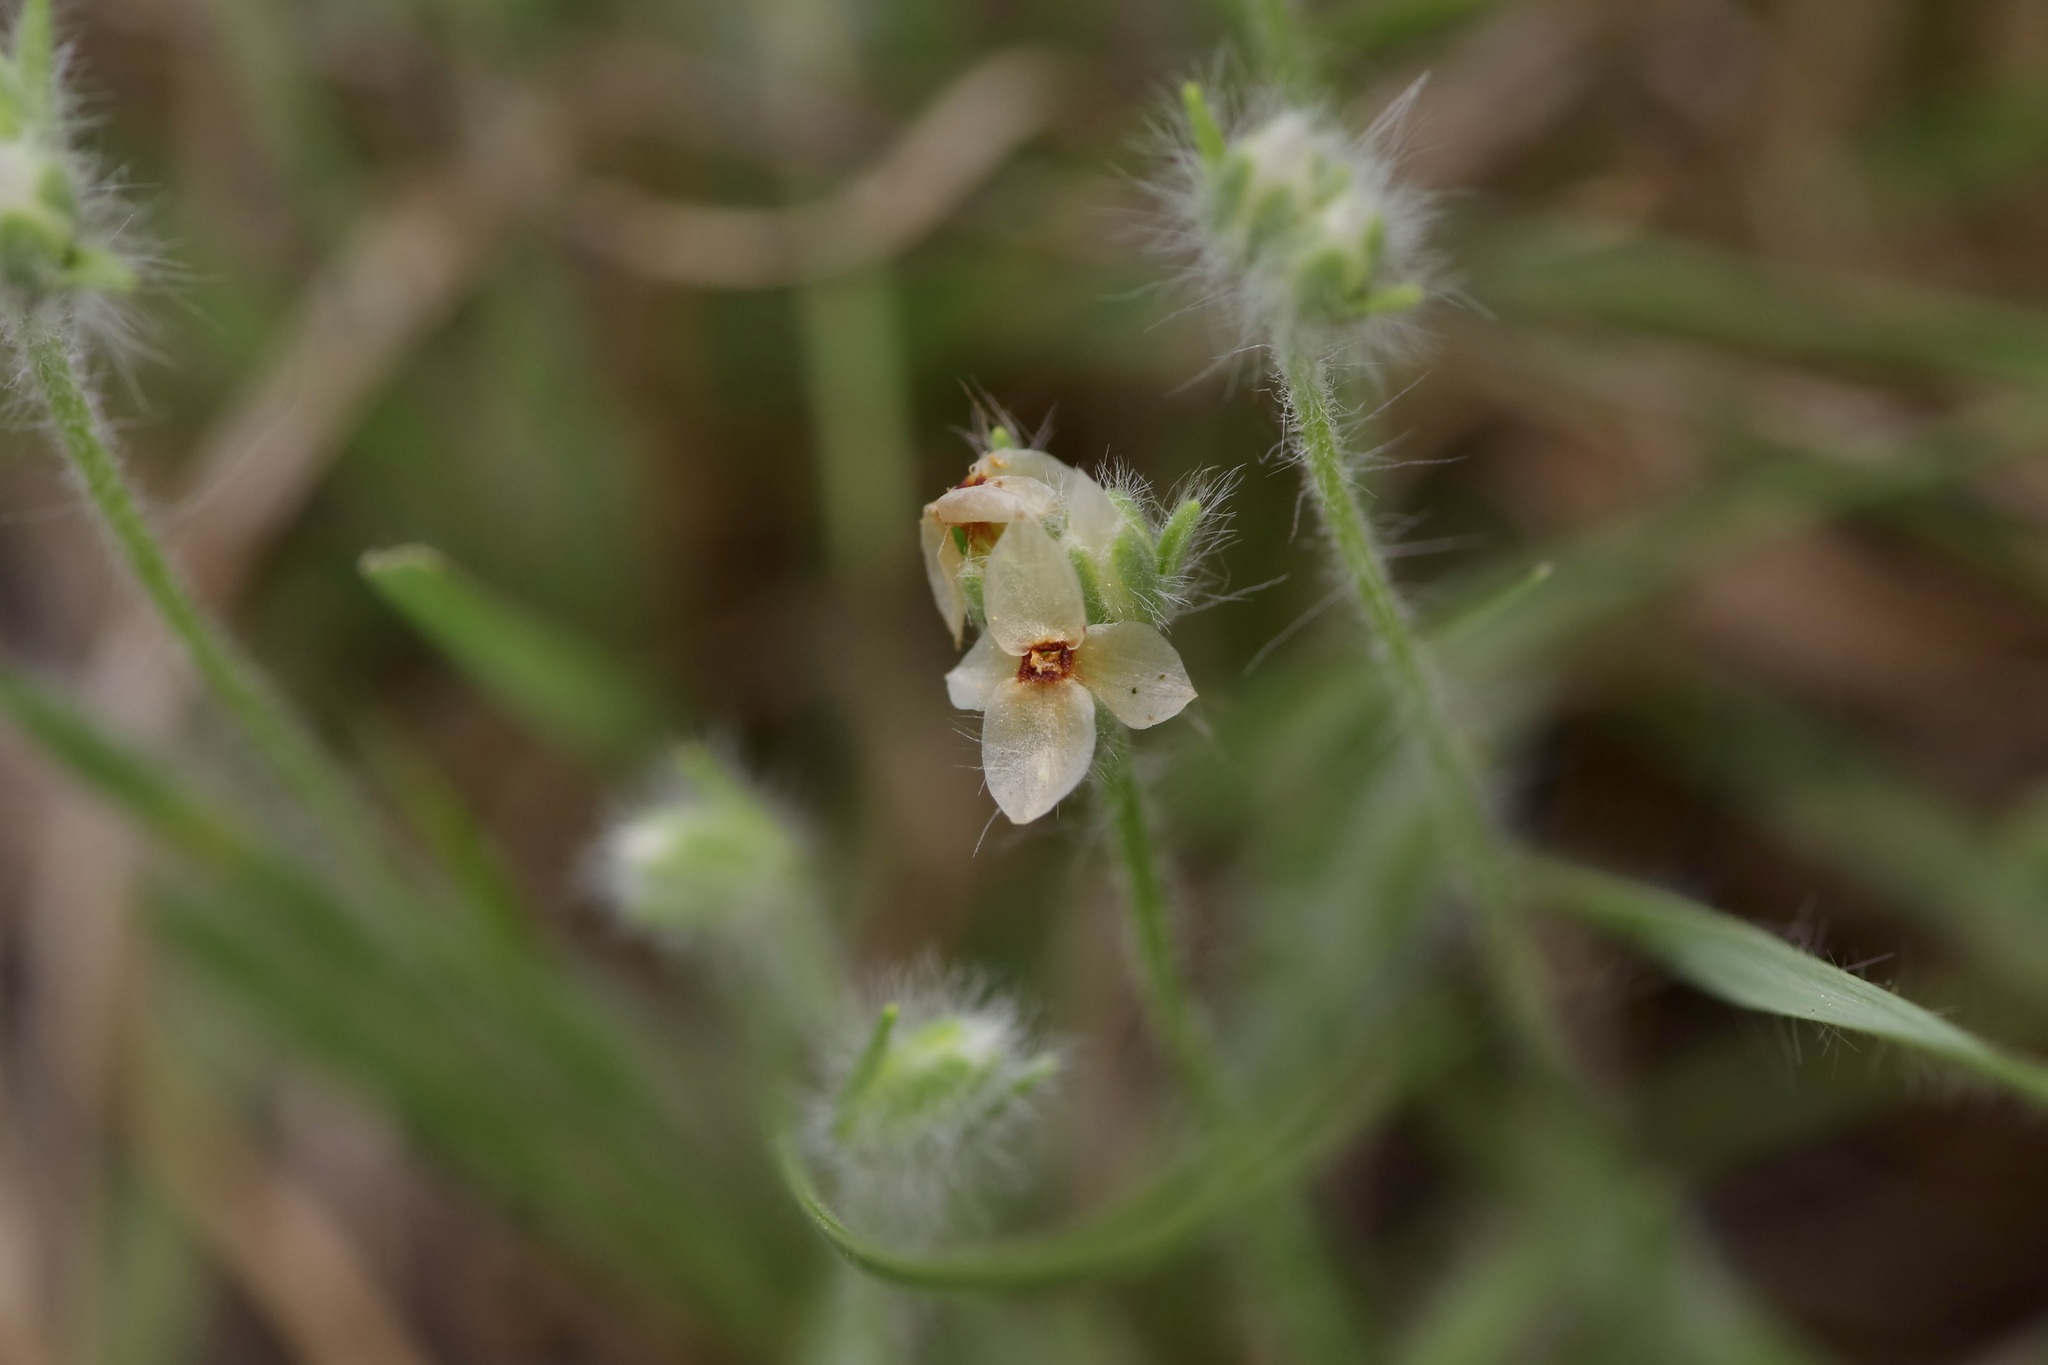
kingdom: Plantae
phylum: Tracheophyta
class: Magnoliopsida
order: Lamiales
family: Plantaginaceae
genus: Plantago
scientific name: Plantago helleri
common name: Heller's plantain
